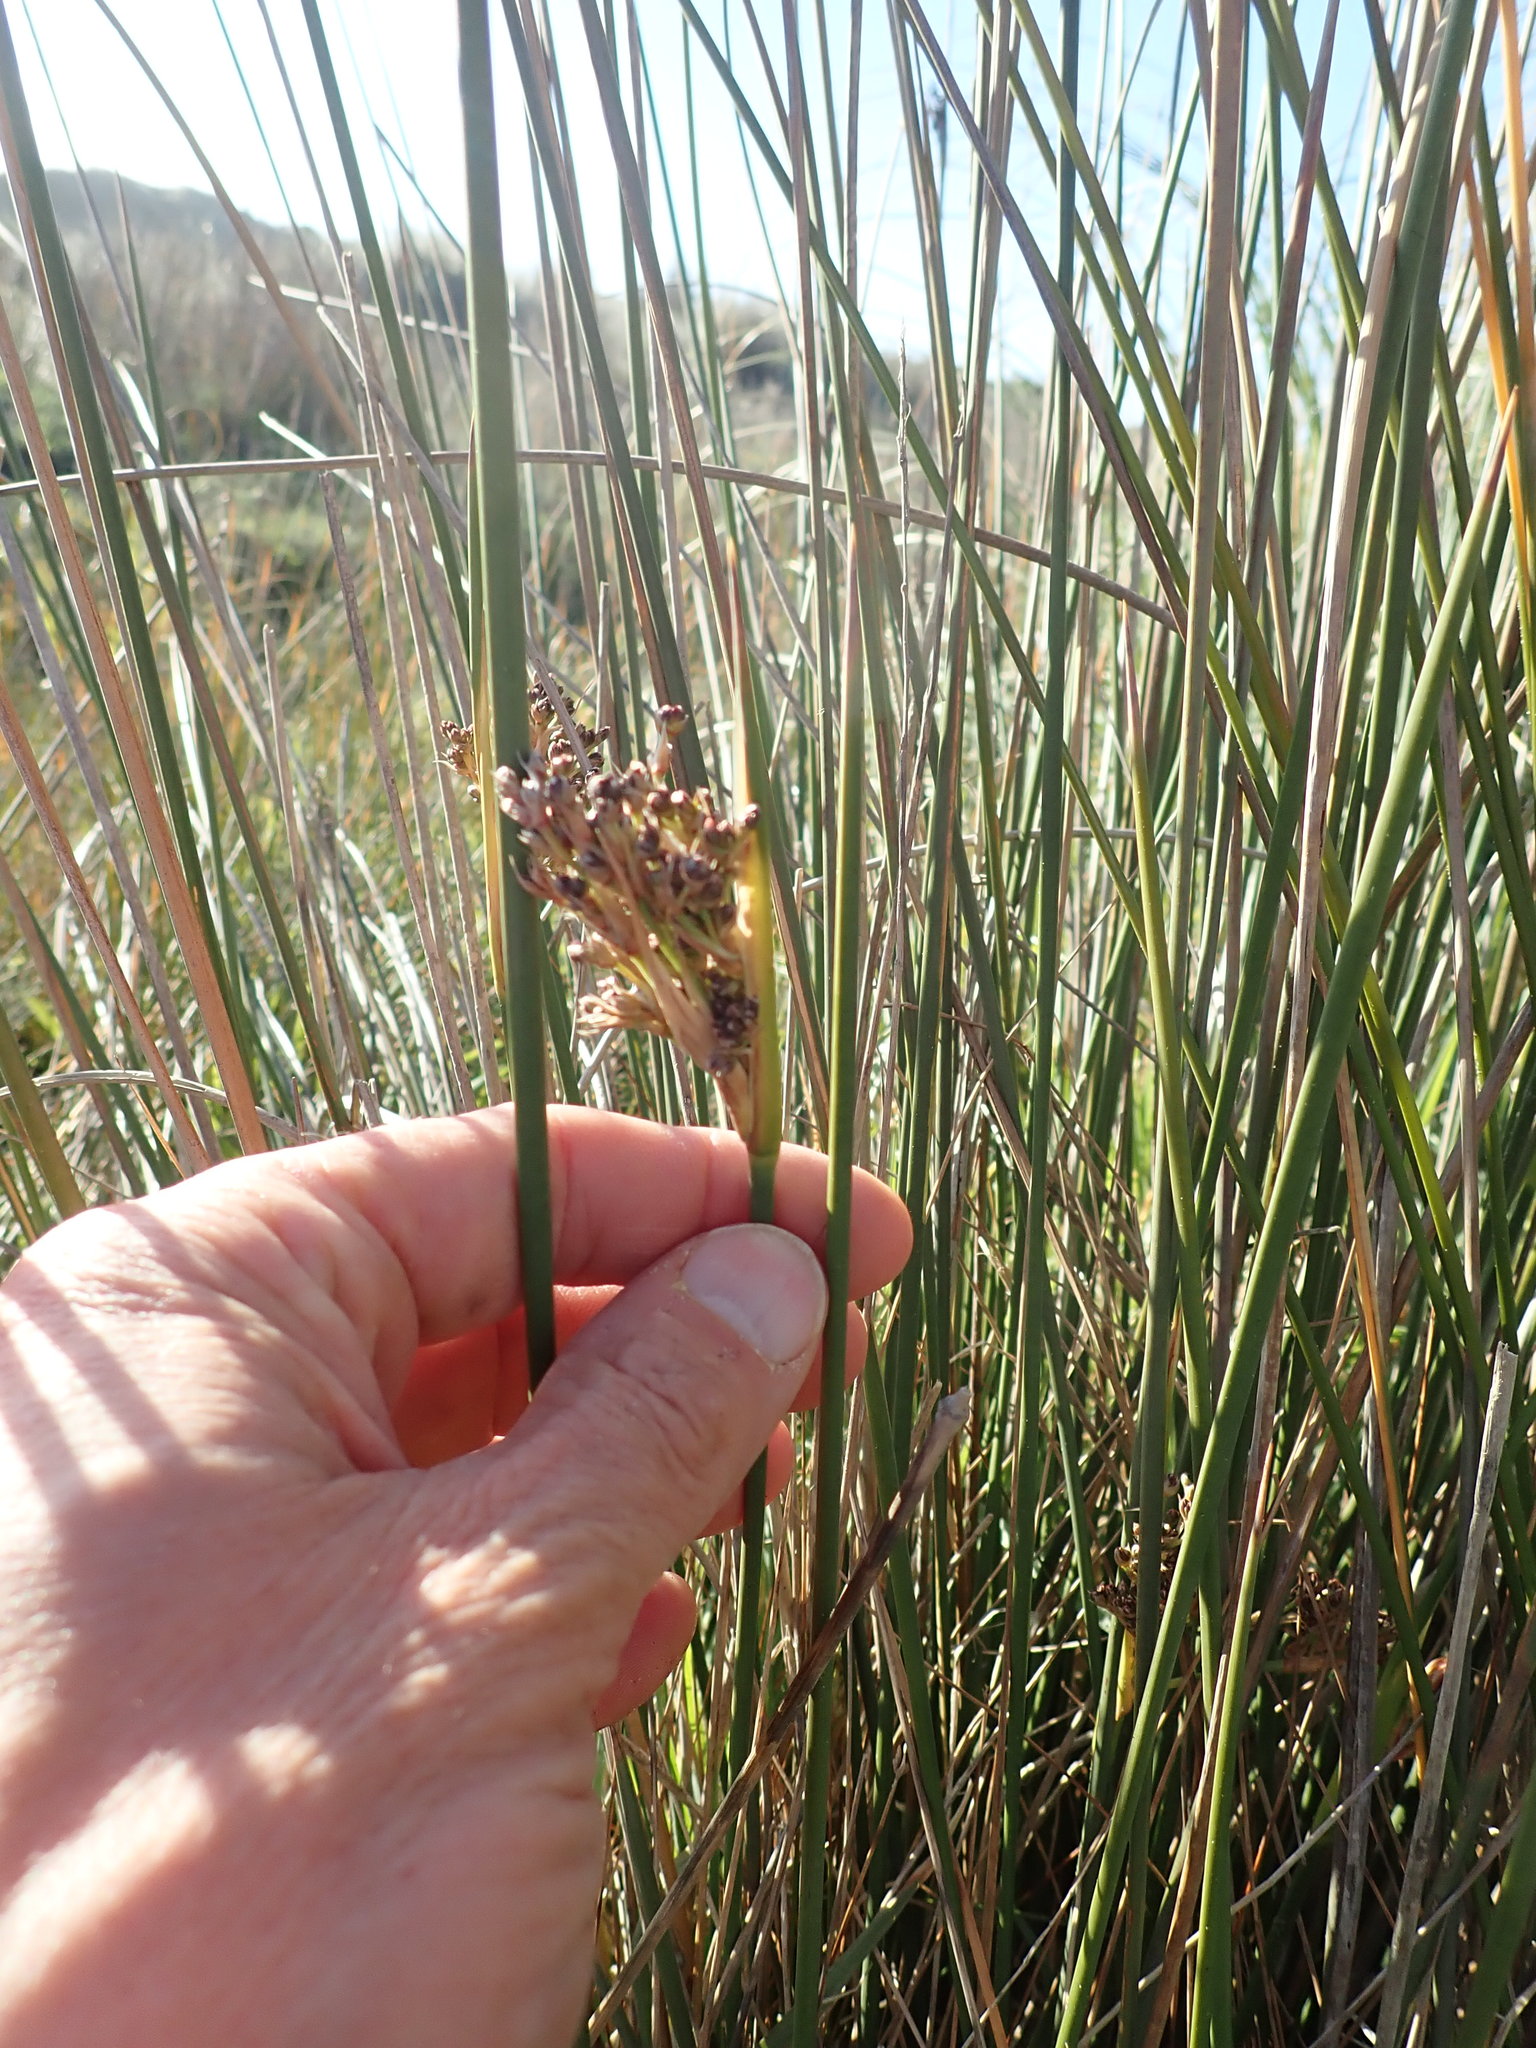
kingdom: Plantae
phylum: Tracheophyta
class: Liliopsida
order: Poales
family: Juncaceae
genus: Juncus
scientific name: Juncus acutus
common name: Sharp rush
